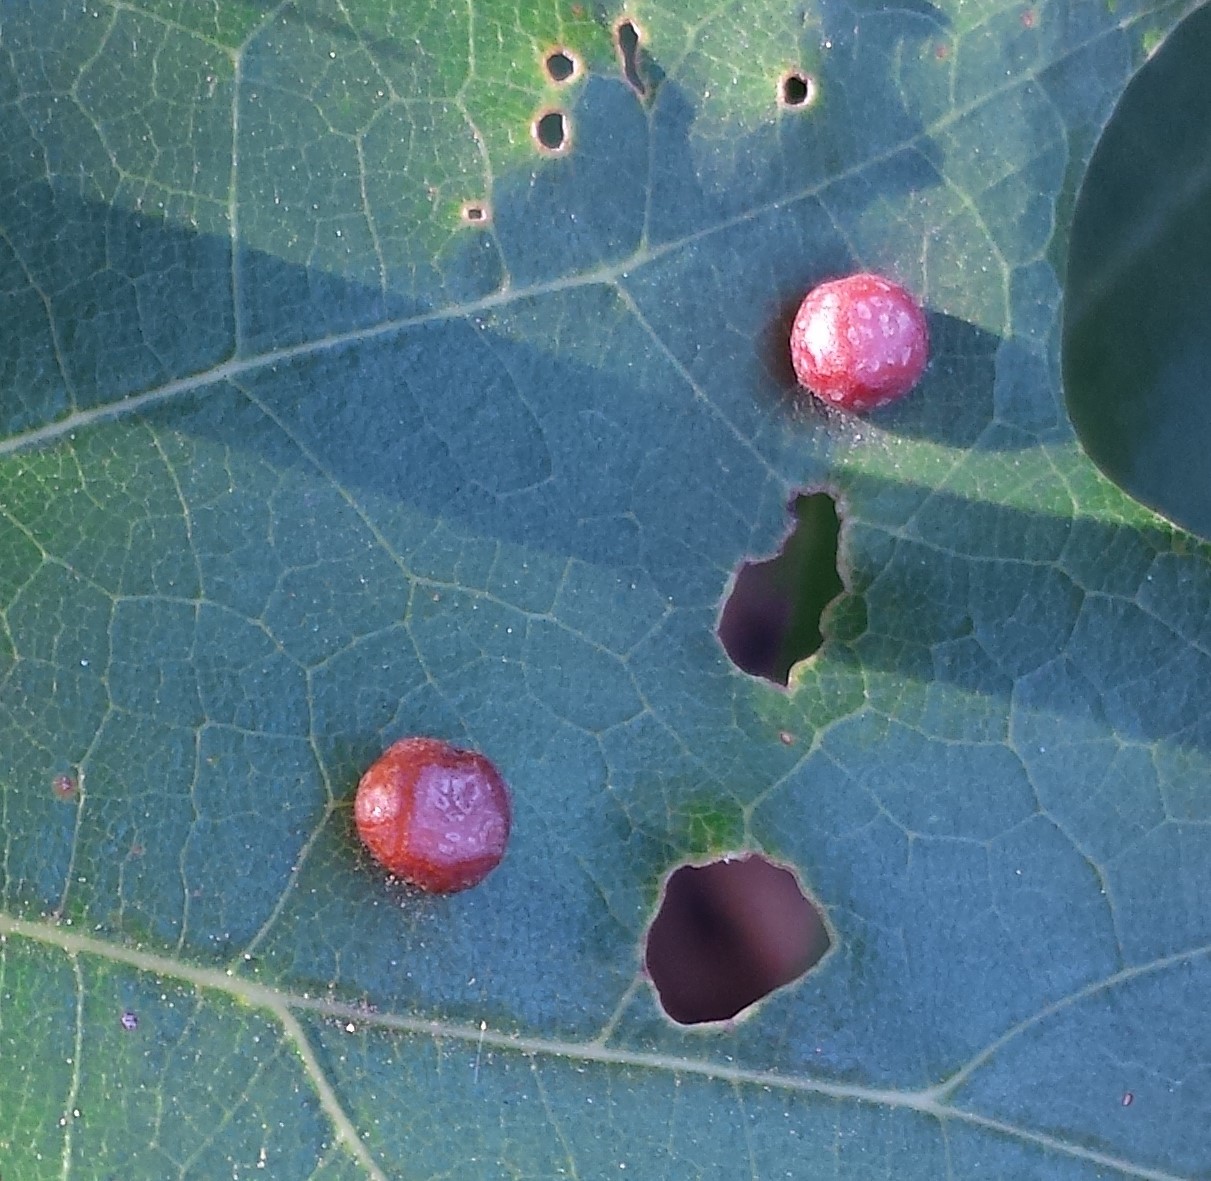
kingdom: Animalia
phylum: Arthropoda
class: Insecta
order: Diptera
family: Cecidomyiidae
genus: Polystepha
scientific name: Polystepha pilulae
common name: Oak leaf gall midge
